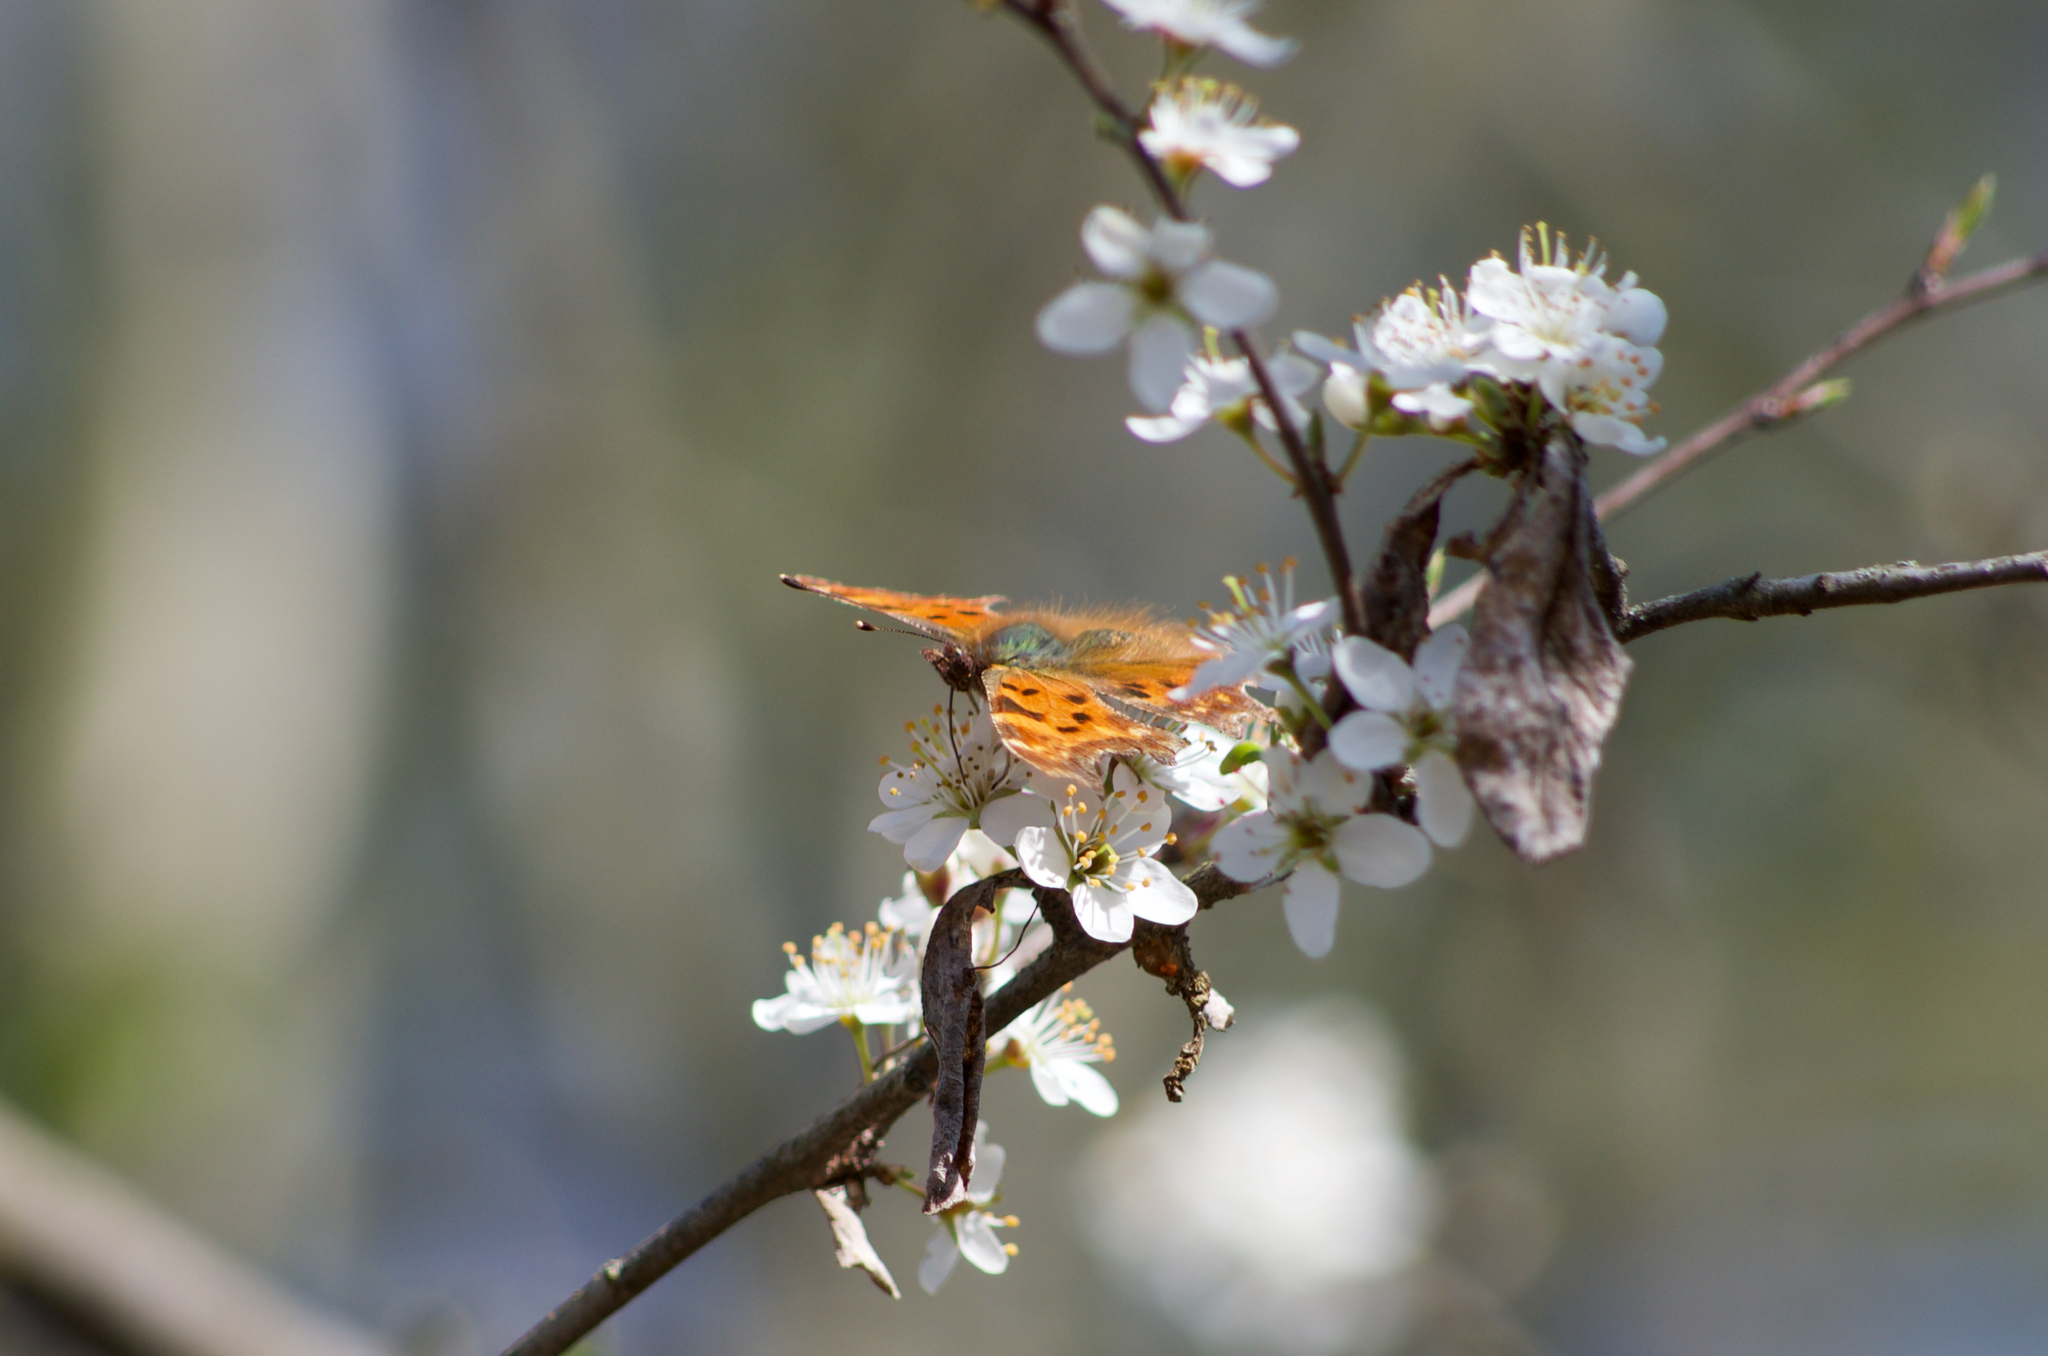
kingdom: Animalia
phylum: Arthropoda
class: Insecta
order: Lepidoptera
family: Nymphalidae
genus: Polygonia
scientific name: Polygonia c-album
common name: Comma
